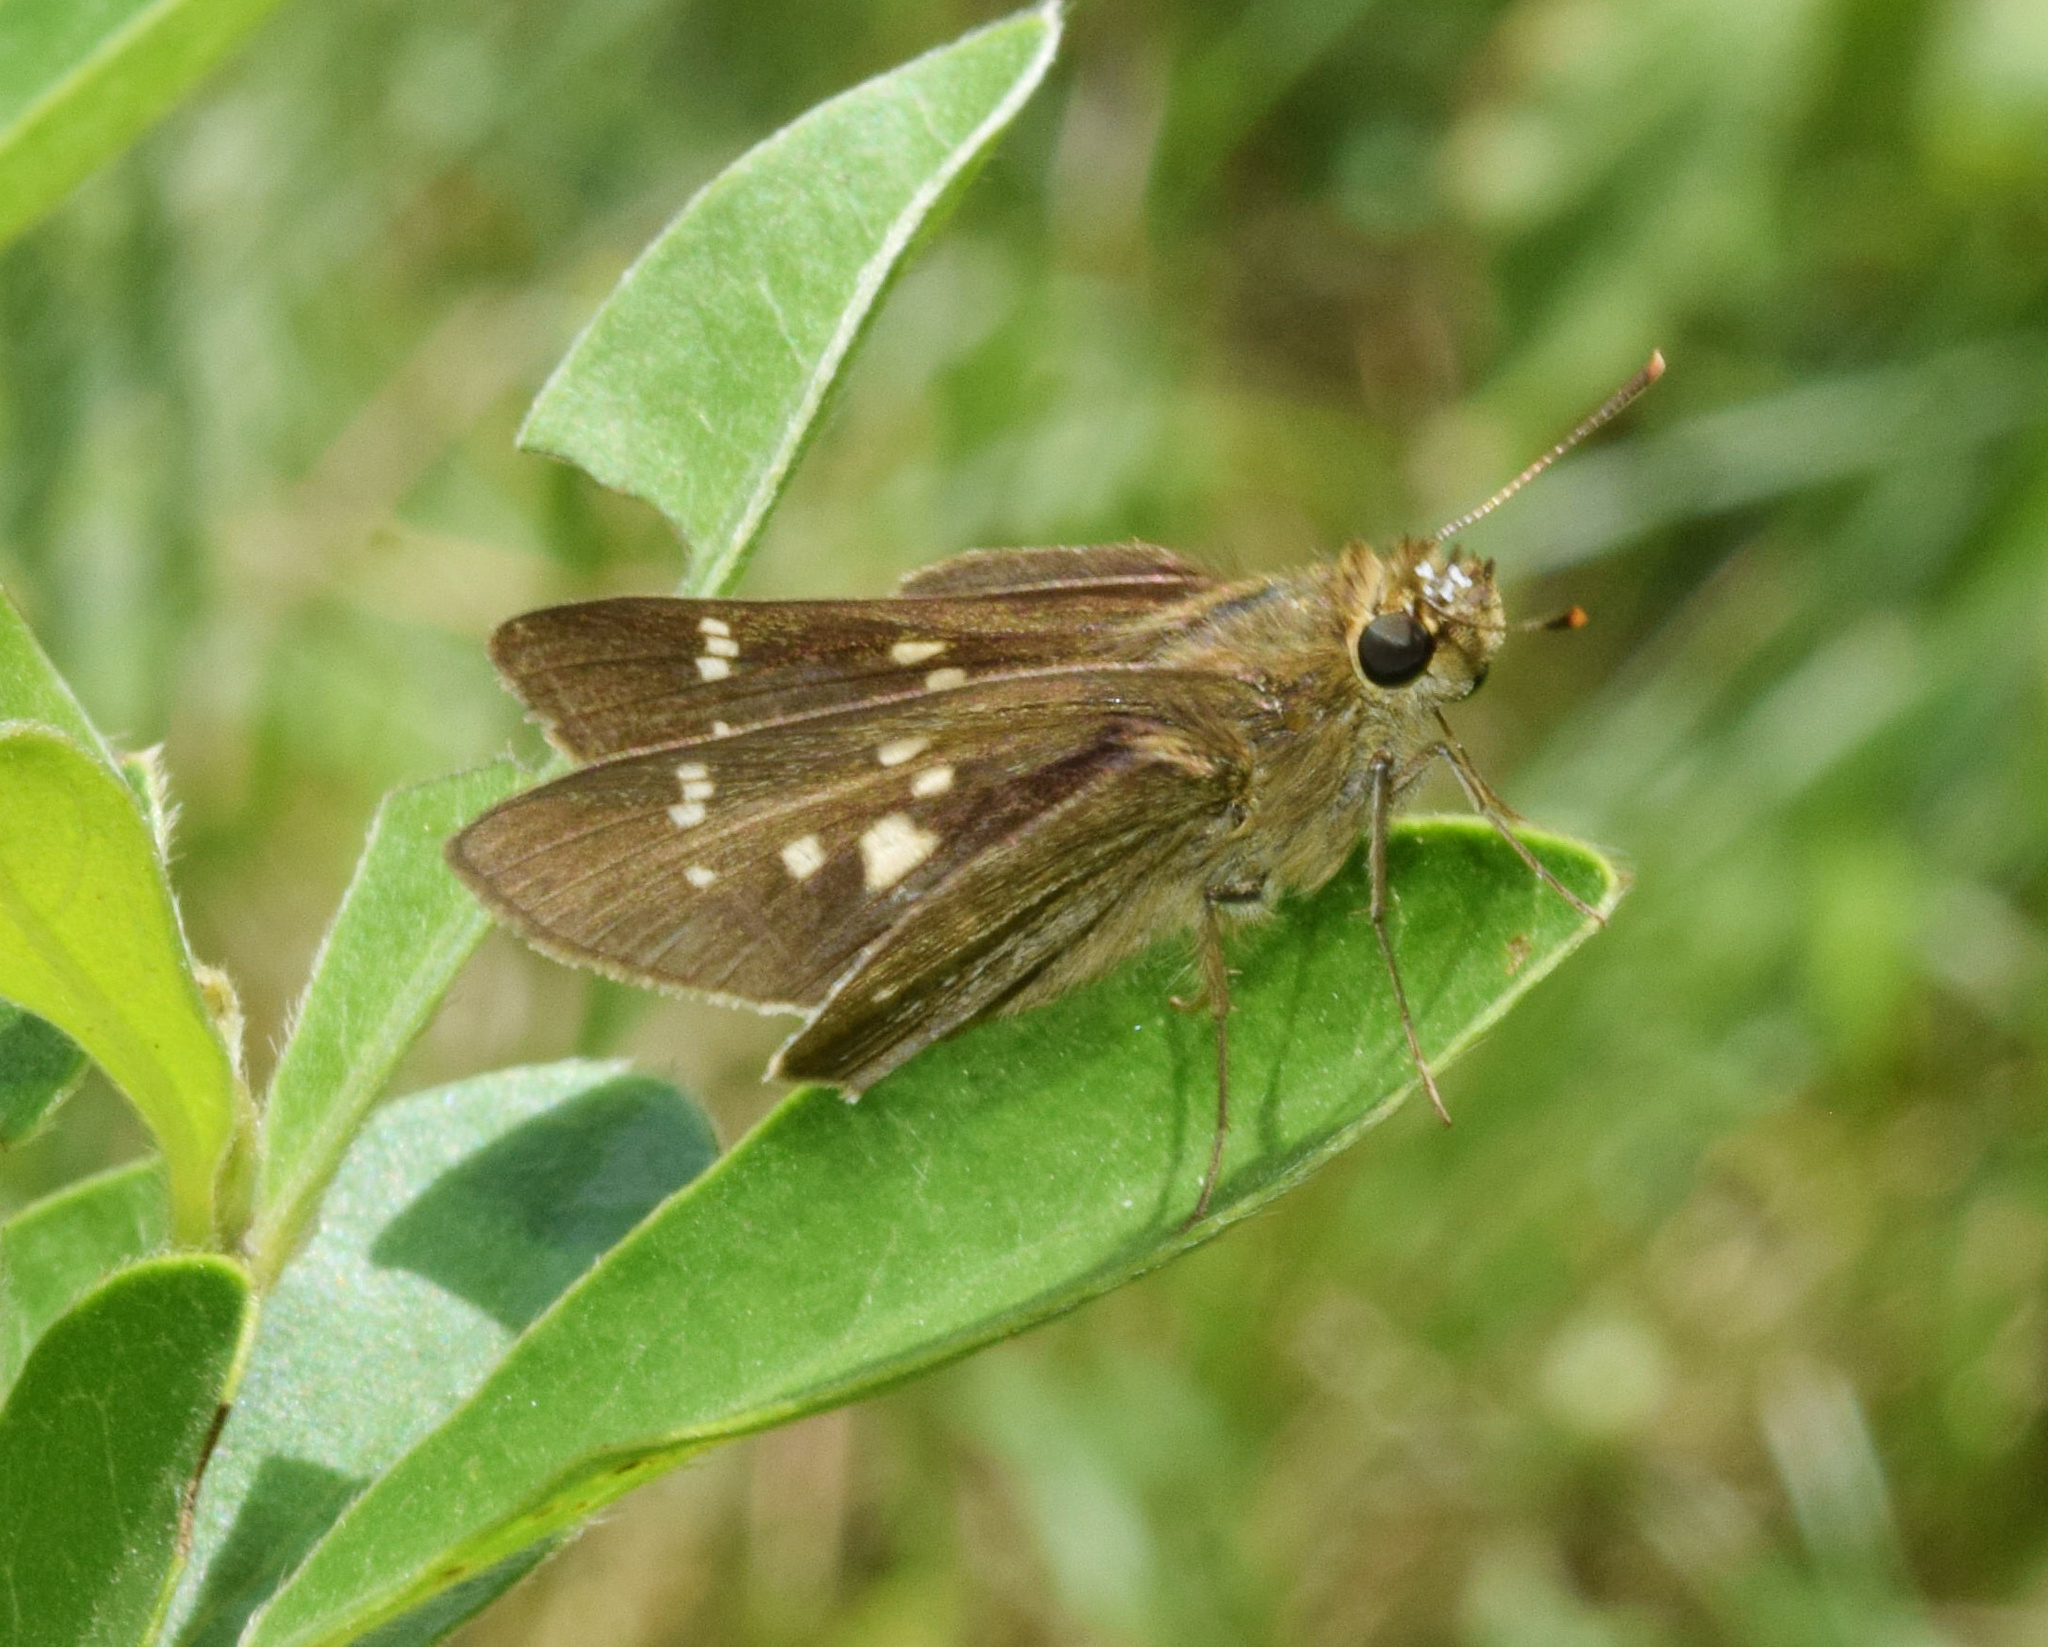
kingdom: Animalia
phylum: Arthropoda
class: Insecta
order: Lepidoptera
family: Hesperiidae
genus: Borbo
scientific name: Borbo fallax
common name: False swift
